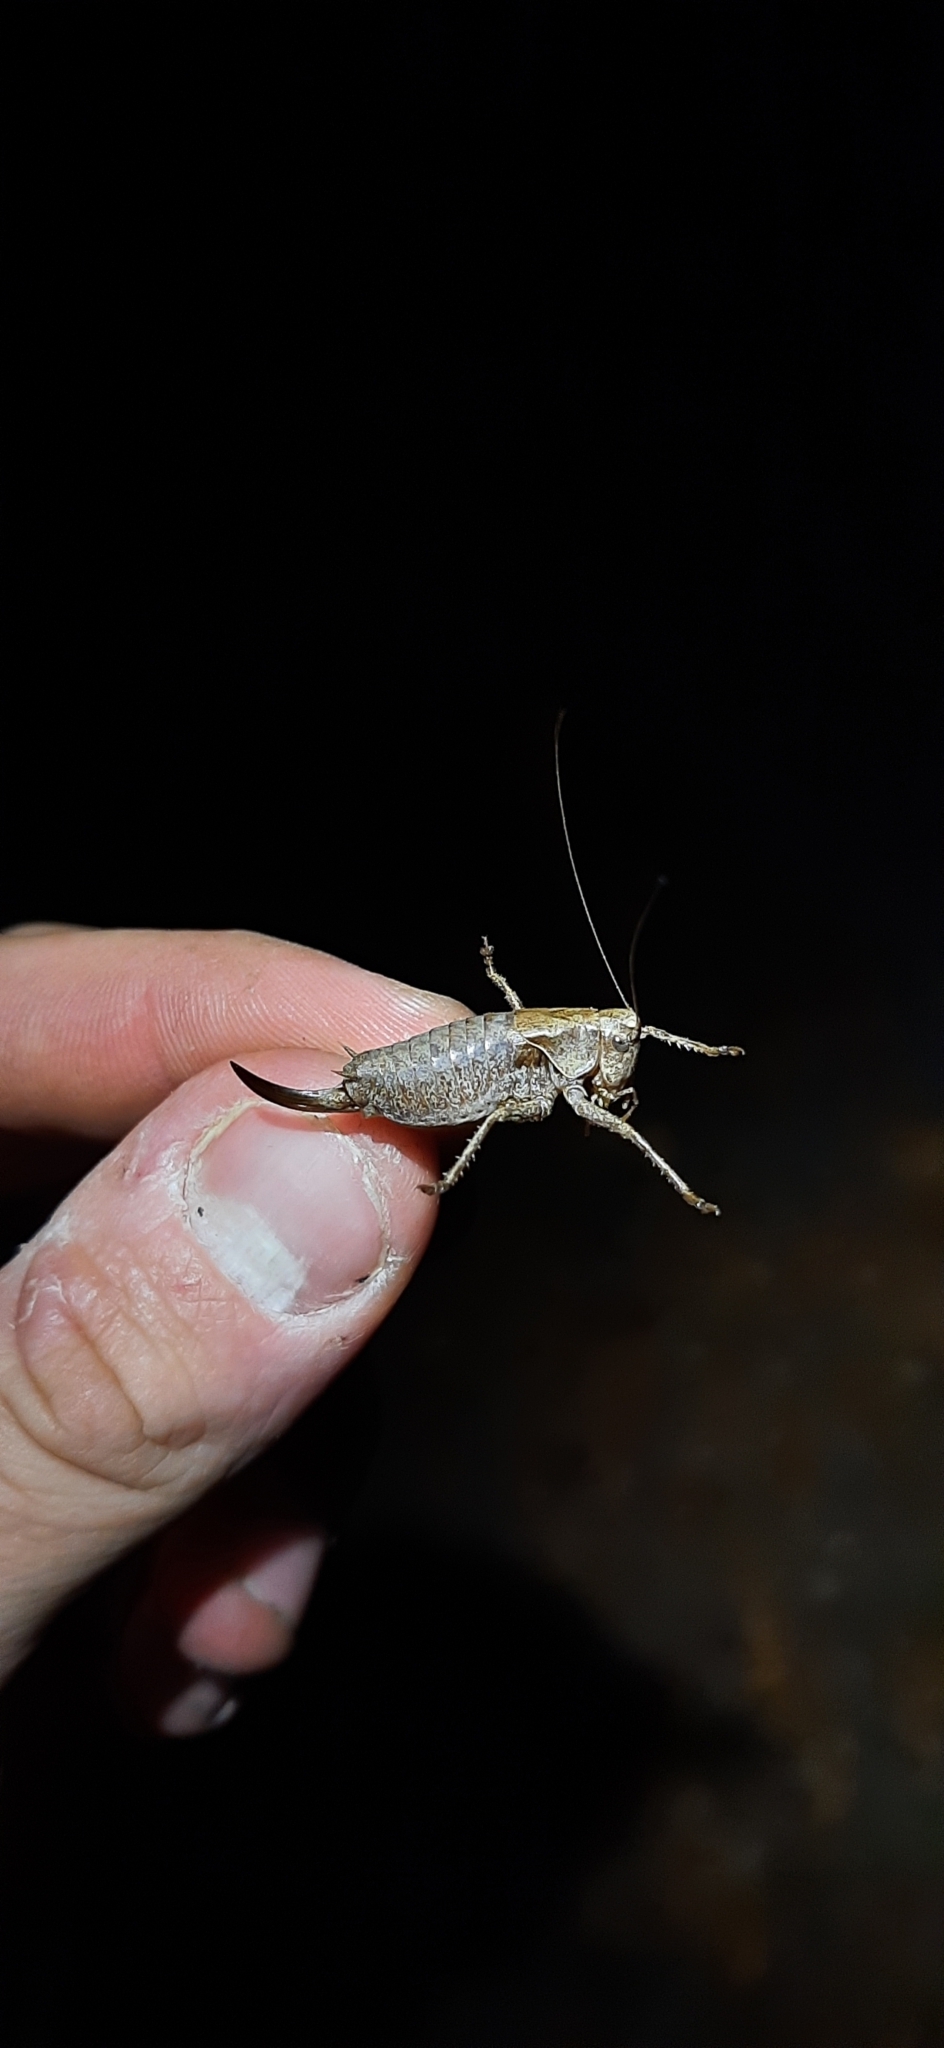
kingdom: Animalia
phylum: Arthropoda
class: Insecta
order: Orthoptera
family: Tettigoniidae
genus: Pholidoptera
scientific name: Pholidoptera griseoaptera
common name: Dark bush-cricket
